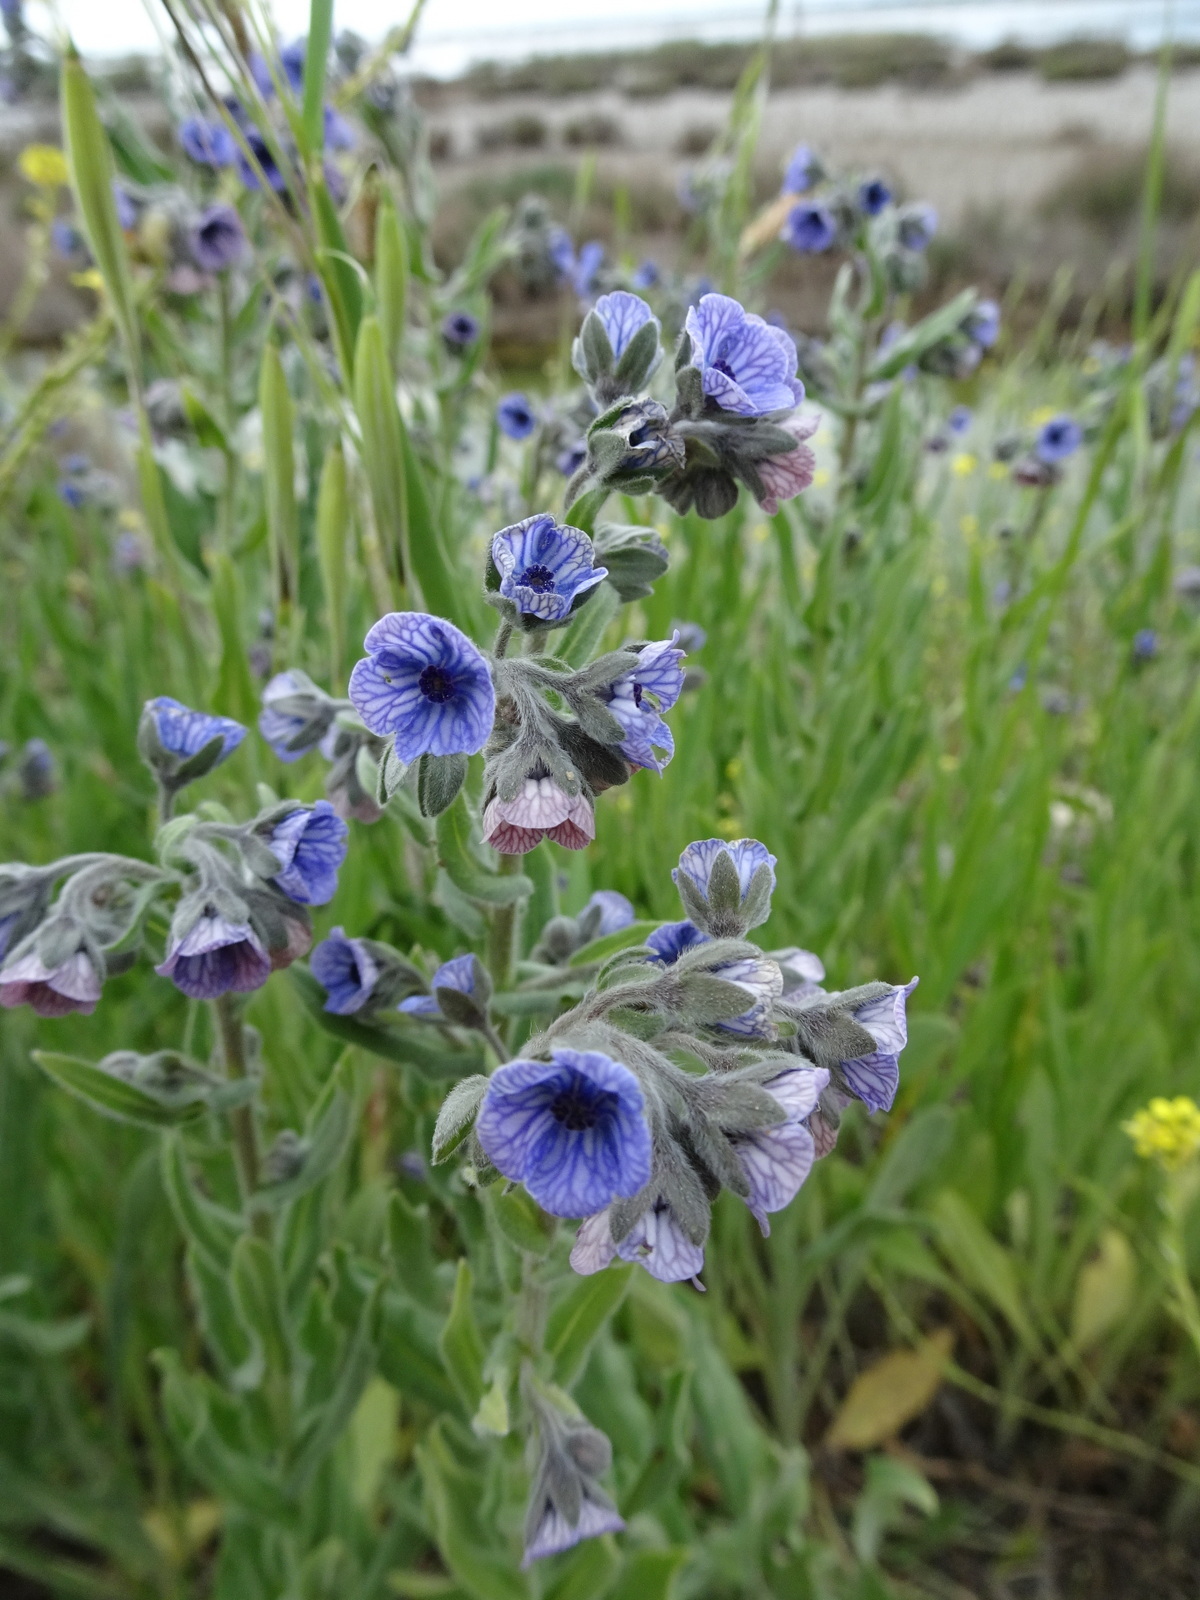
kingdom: Plantae
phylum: Tracheophyta
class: Magnoliopsida
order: Boraginales
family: Boraginaceae
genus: Cynoglossum
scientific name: Cynoglossum creticum
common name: Blue hound's tongue
